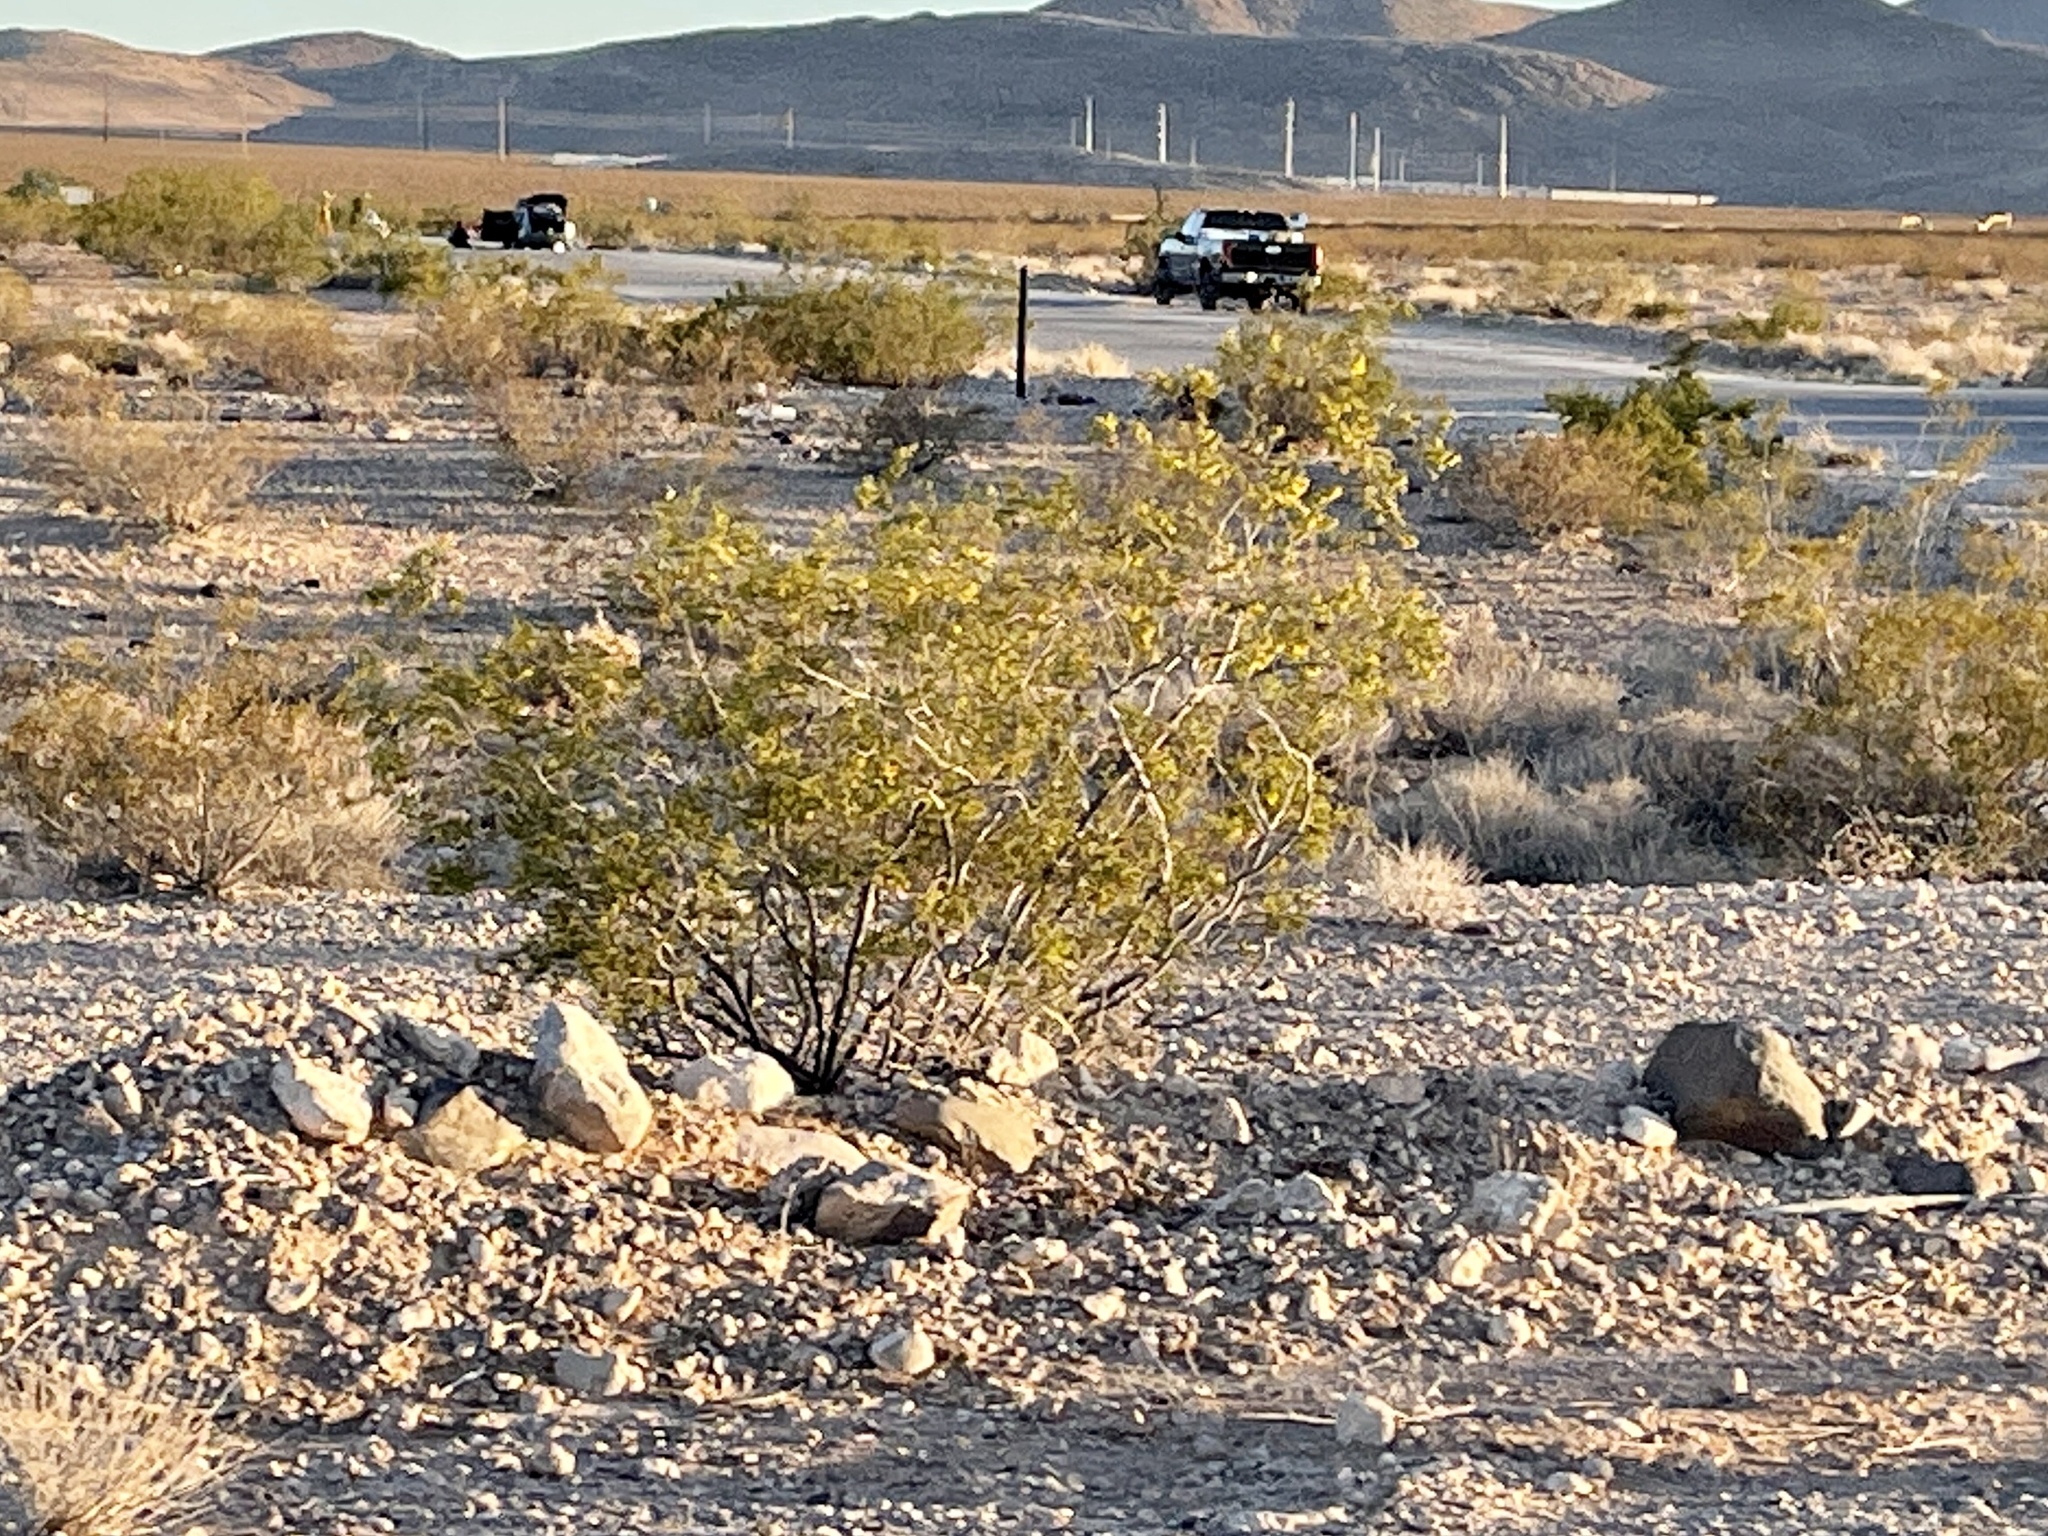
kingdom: Plantae
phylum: Tracheophyta
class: Magnoliopsida
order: Zygophyllales
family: Zygophyllaceae
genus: Larrea
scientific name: Larrea tridentata
